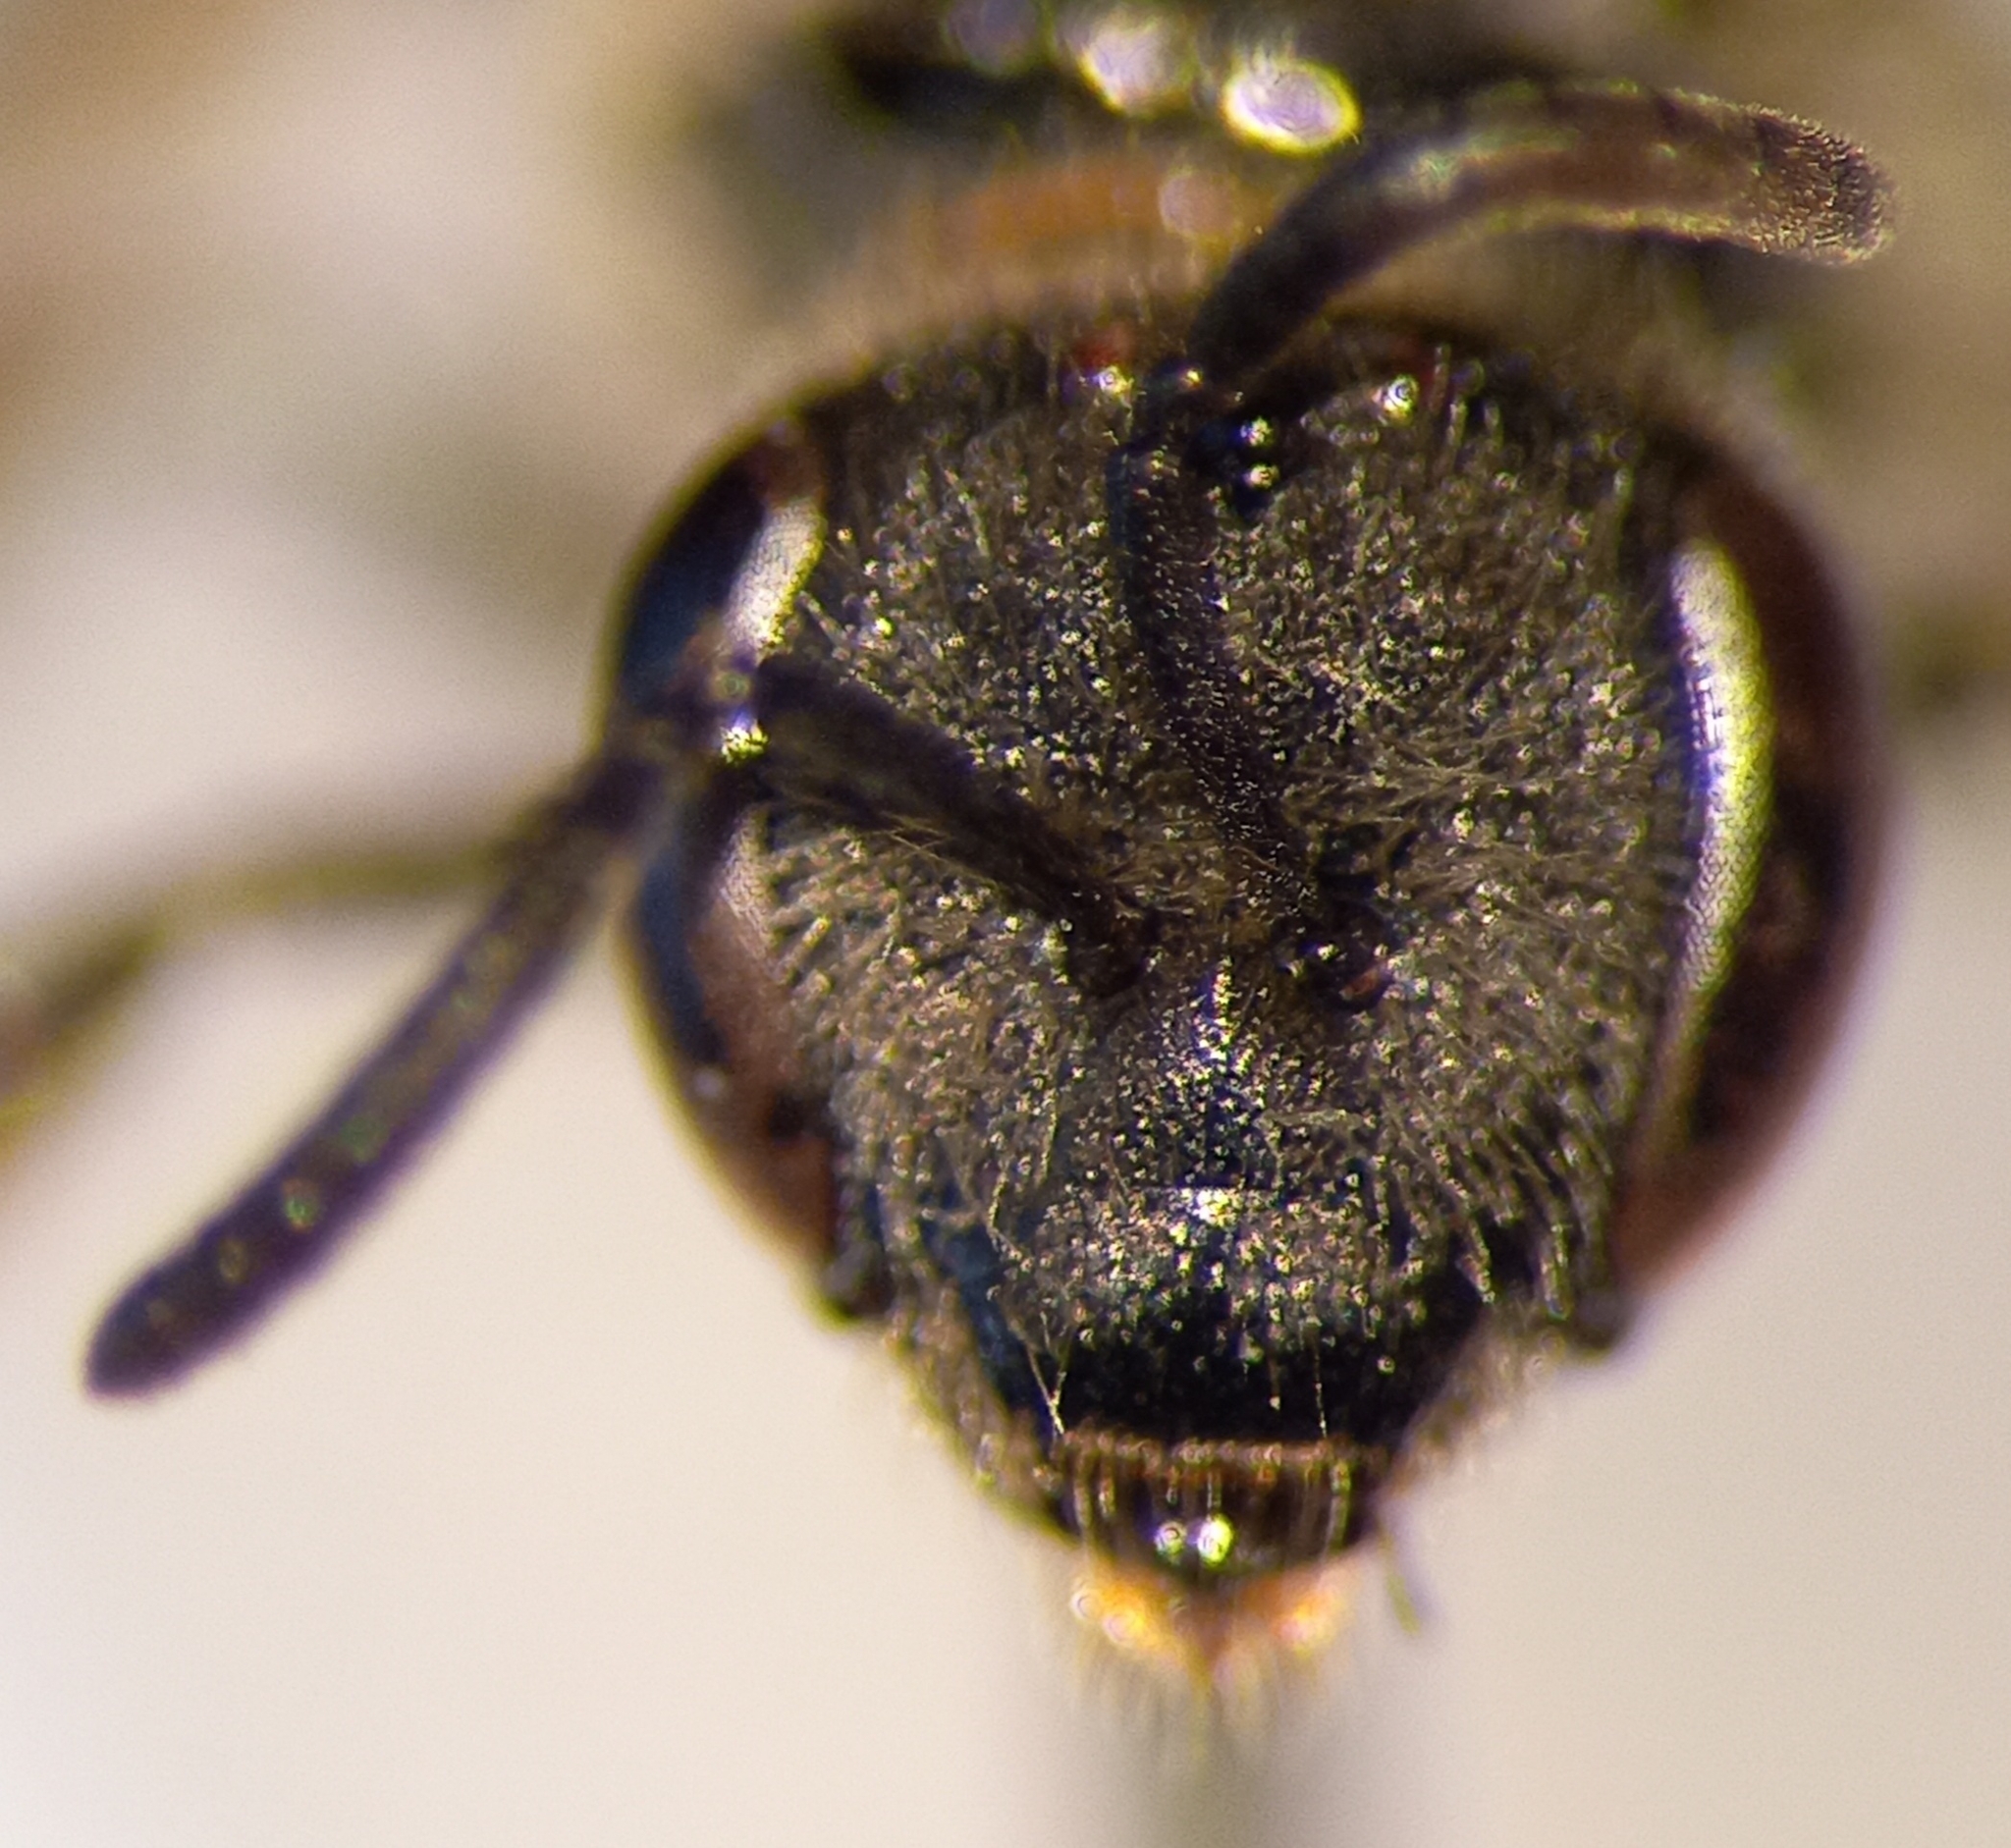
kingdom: Animalia
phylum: Arthropoda
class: Insecta
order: Hymenoptera
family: Halictidae
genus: Lasioglossum
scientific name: Lasioglossum malachurum
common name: Sharp-collared furrow bee
